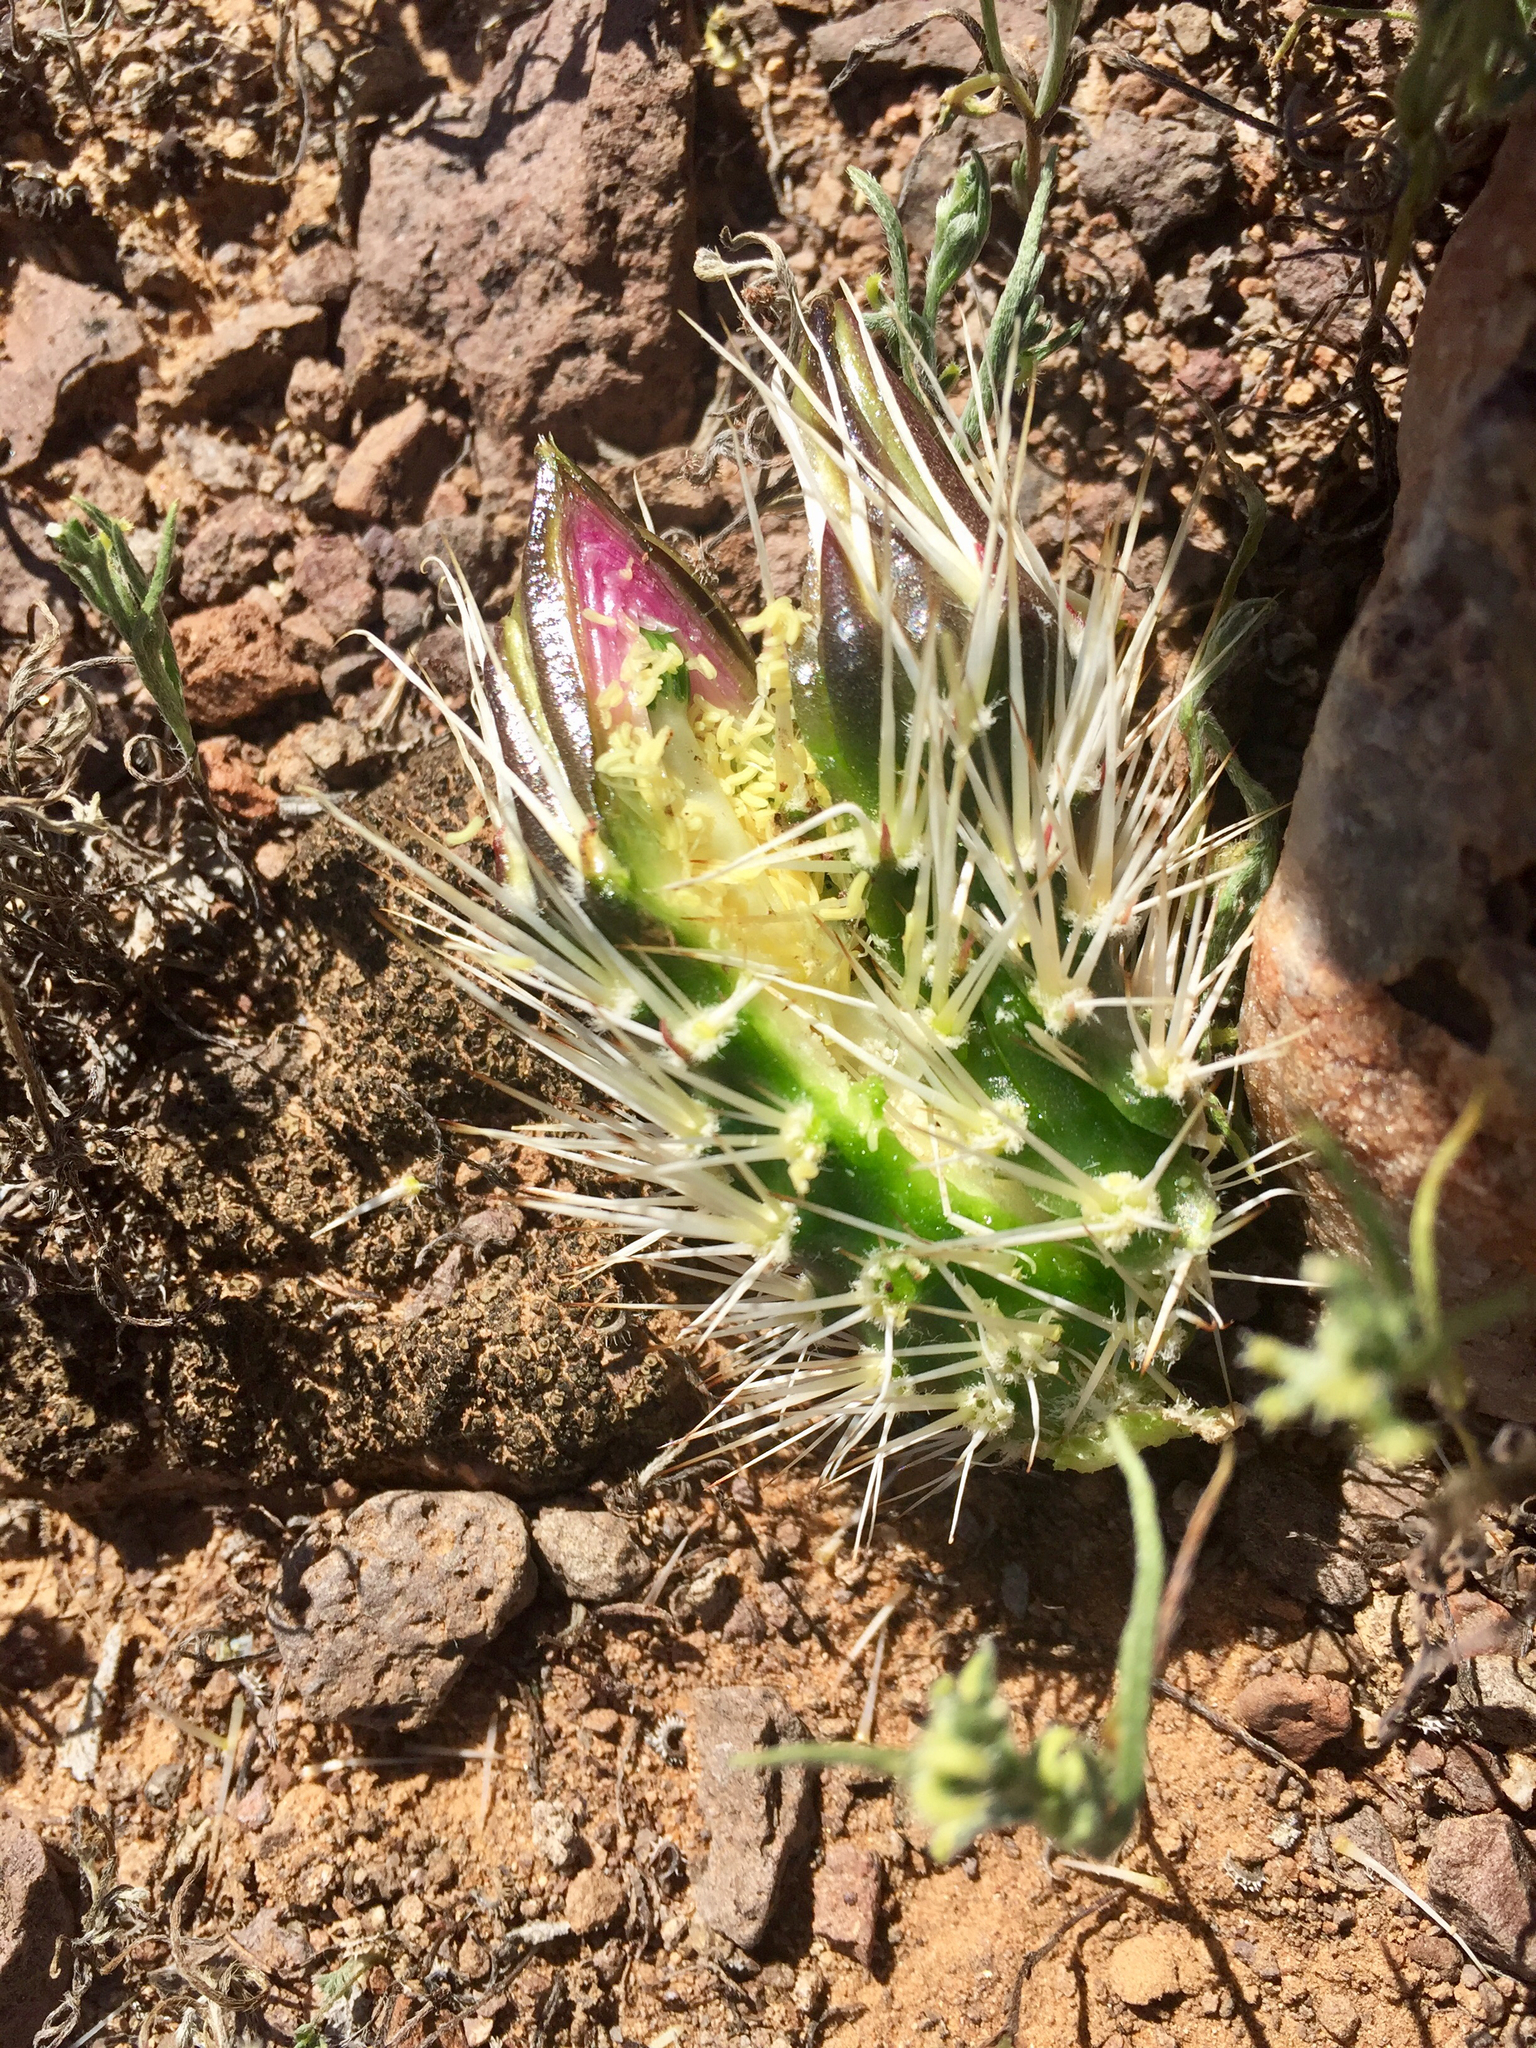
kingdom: Plantae
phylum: Tracheophyta
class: Magnoliopsida
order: Caryophyllales
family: Cactaceae
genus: Echinocereus
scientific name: Echinocereus fasciculatus
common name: Bundle hedgehog
